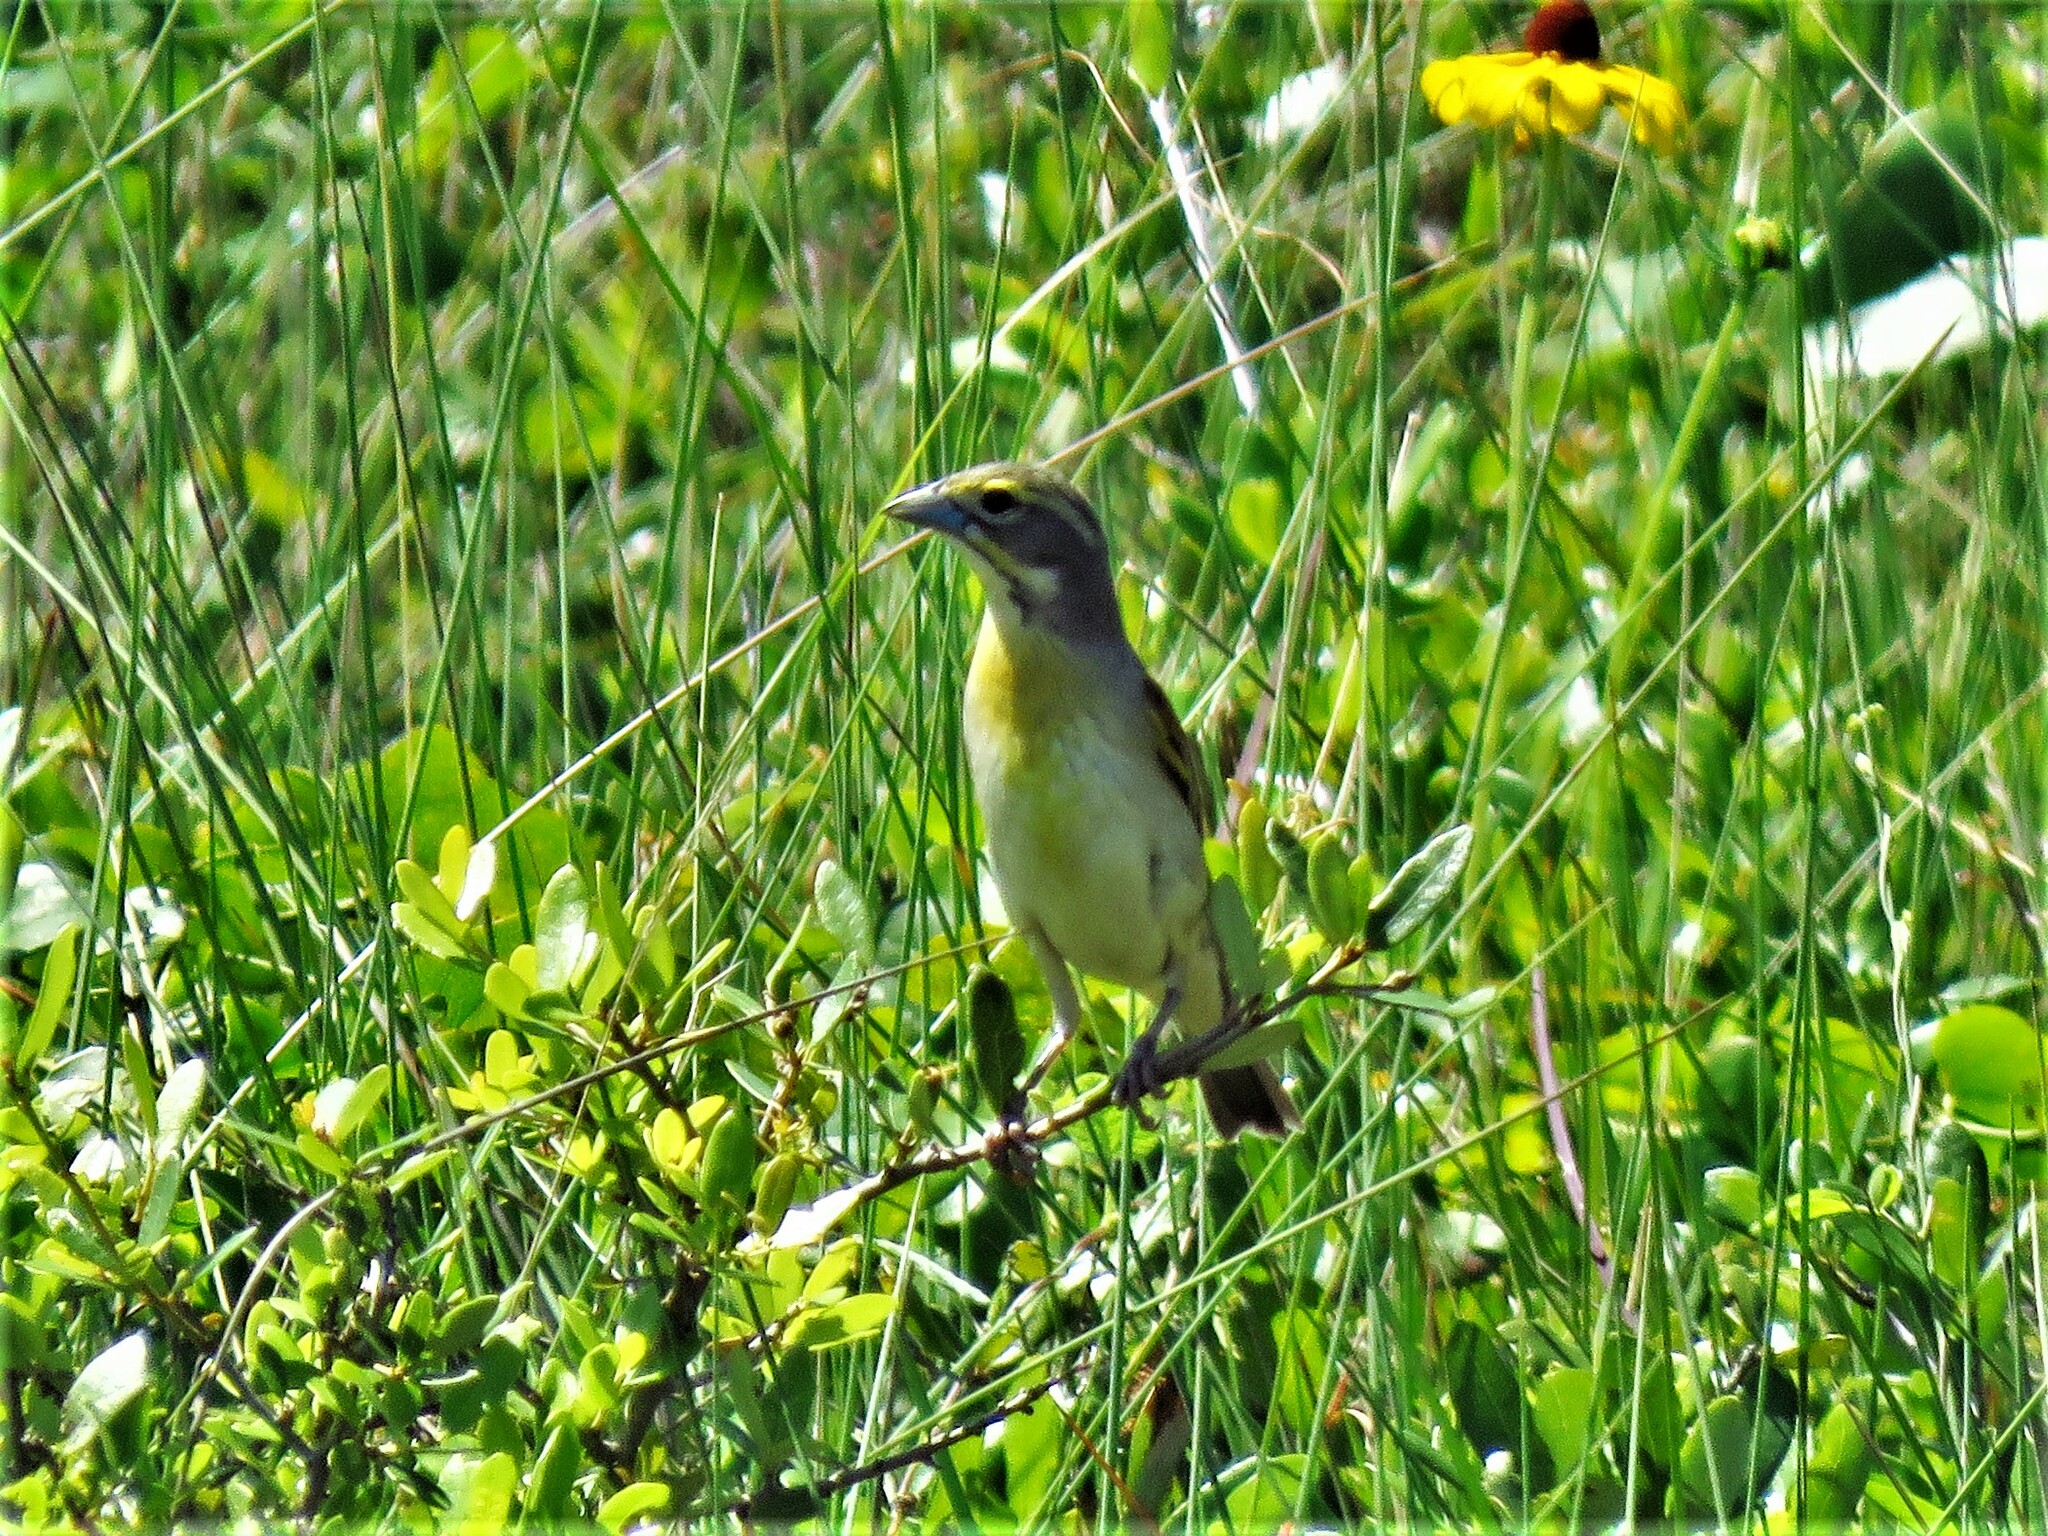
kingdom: Animalia
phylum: Chordata
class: Aves
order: Passeriformes
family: Cardinalidae
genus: Spiza
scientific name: Spiza americana
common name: Dickcissel
